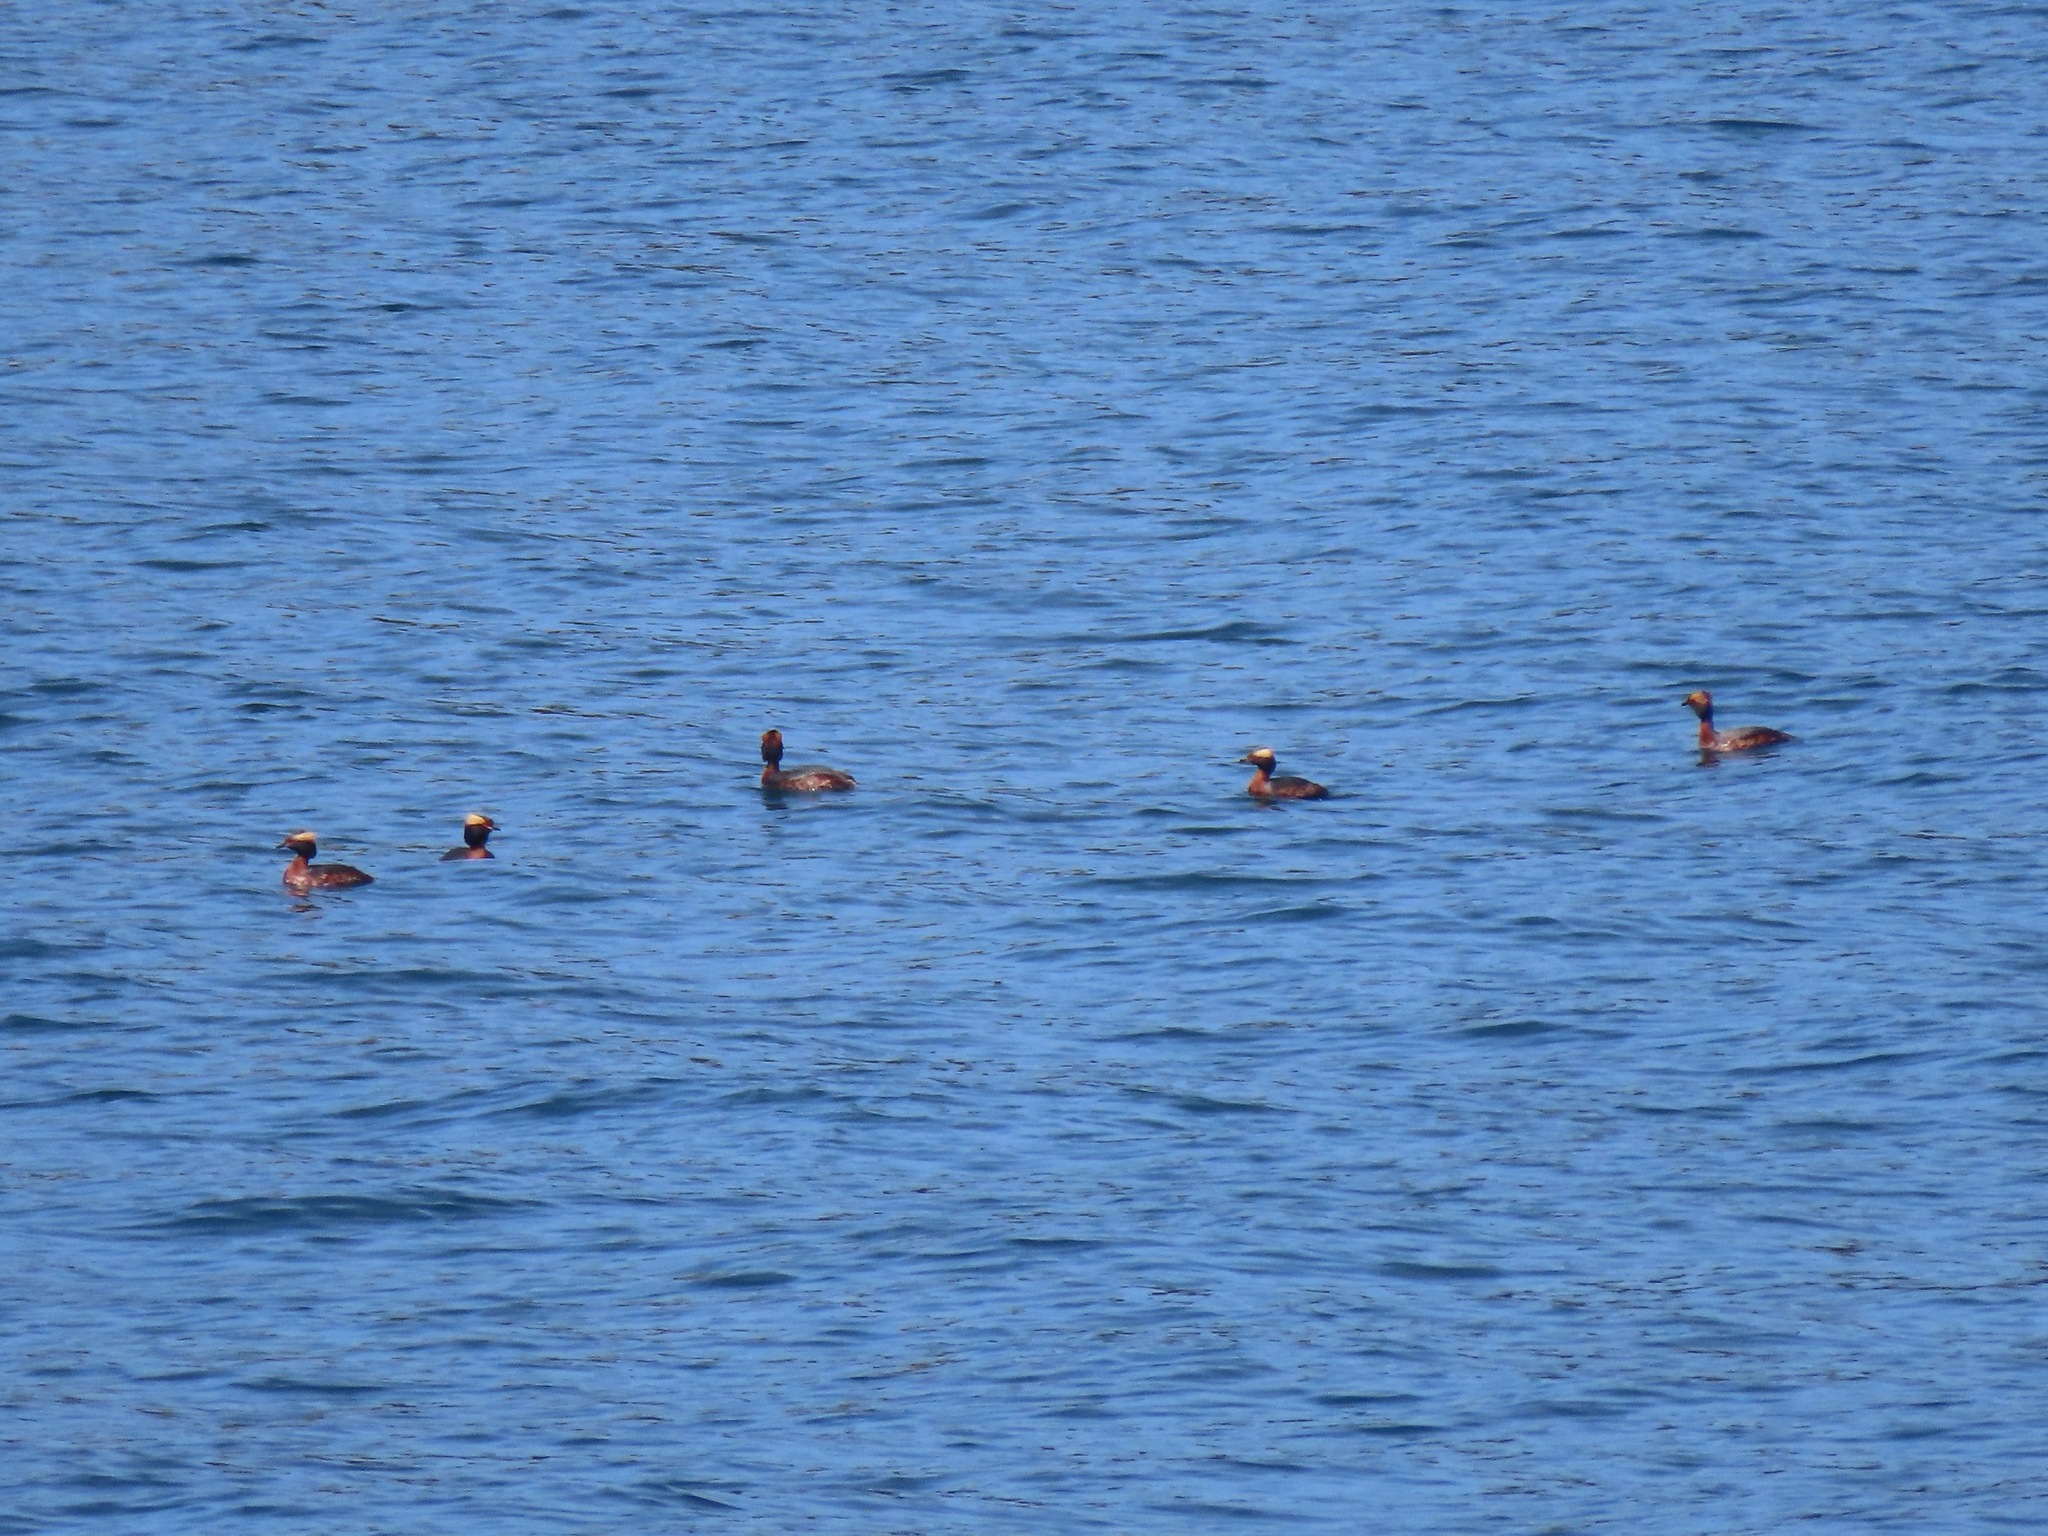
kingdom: Animalia
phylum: Chordata
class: Aves
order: Podicipediformes
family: Podicipedidae
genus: Podiceps
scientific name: Podiceps auritus
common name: Horned grebe
